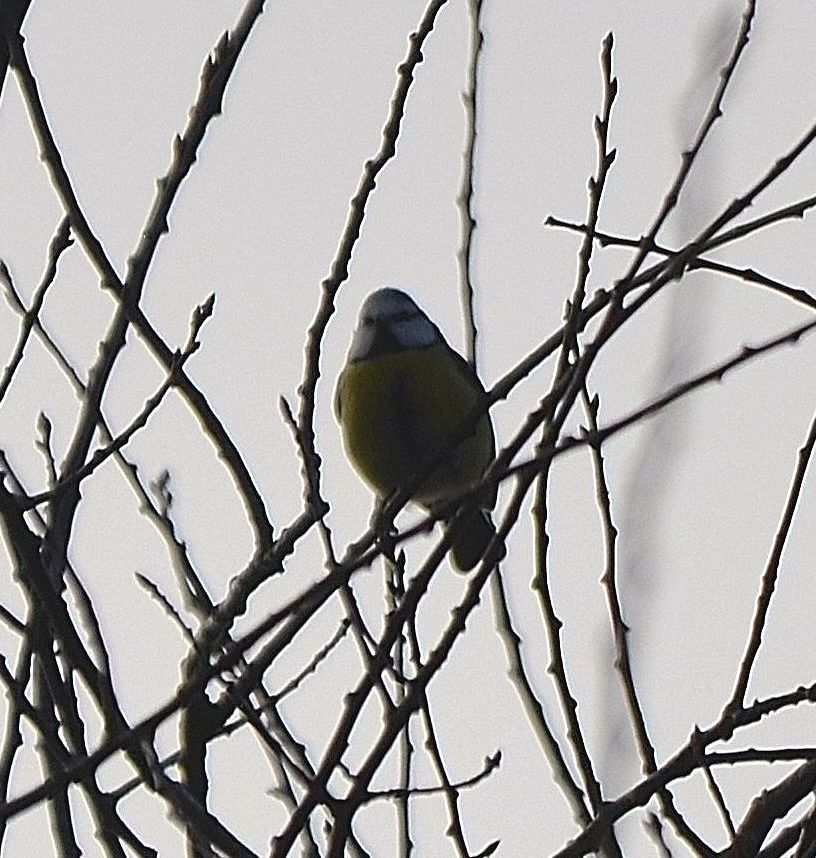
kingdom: Animalia
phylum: Chordata
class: Aves
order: Passeriformes
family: Paridae
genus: Cyanistes
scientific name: Cyanistes caeruleus
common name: Eurasian blue tit
